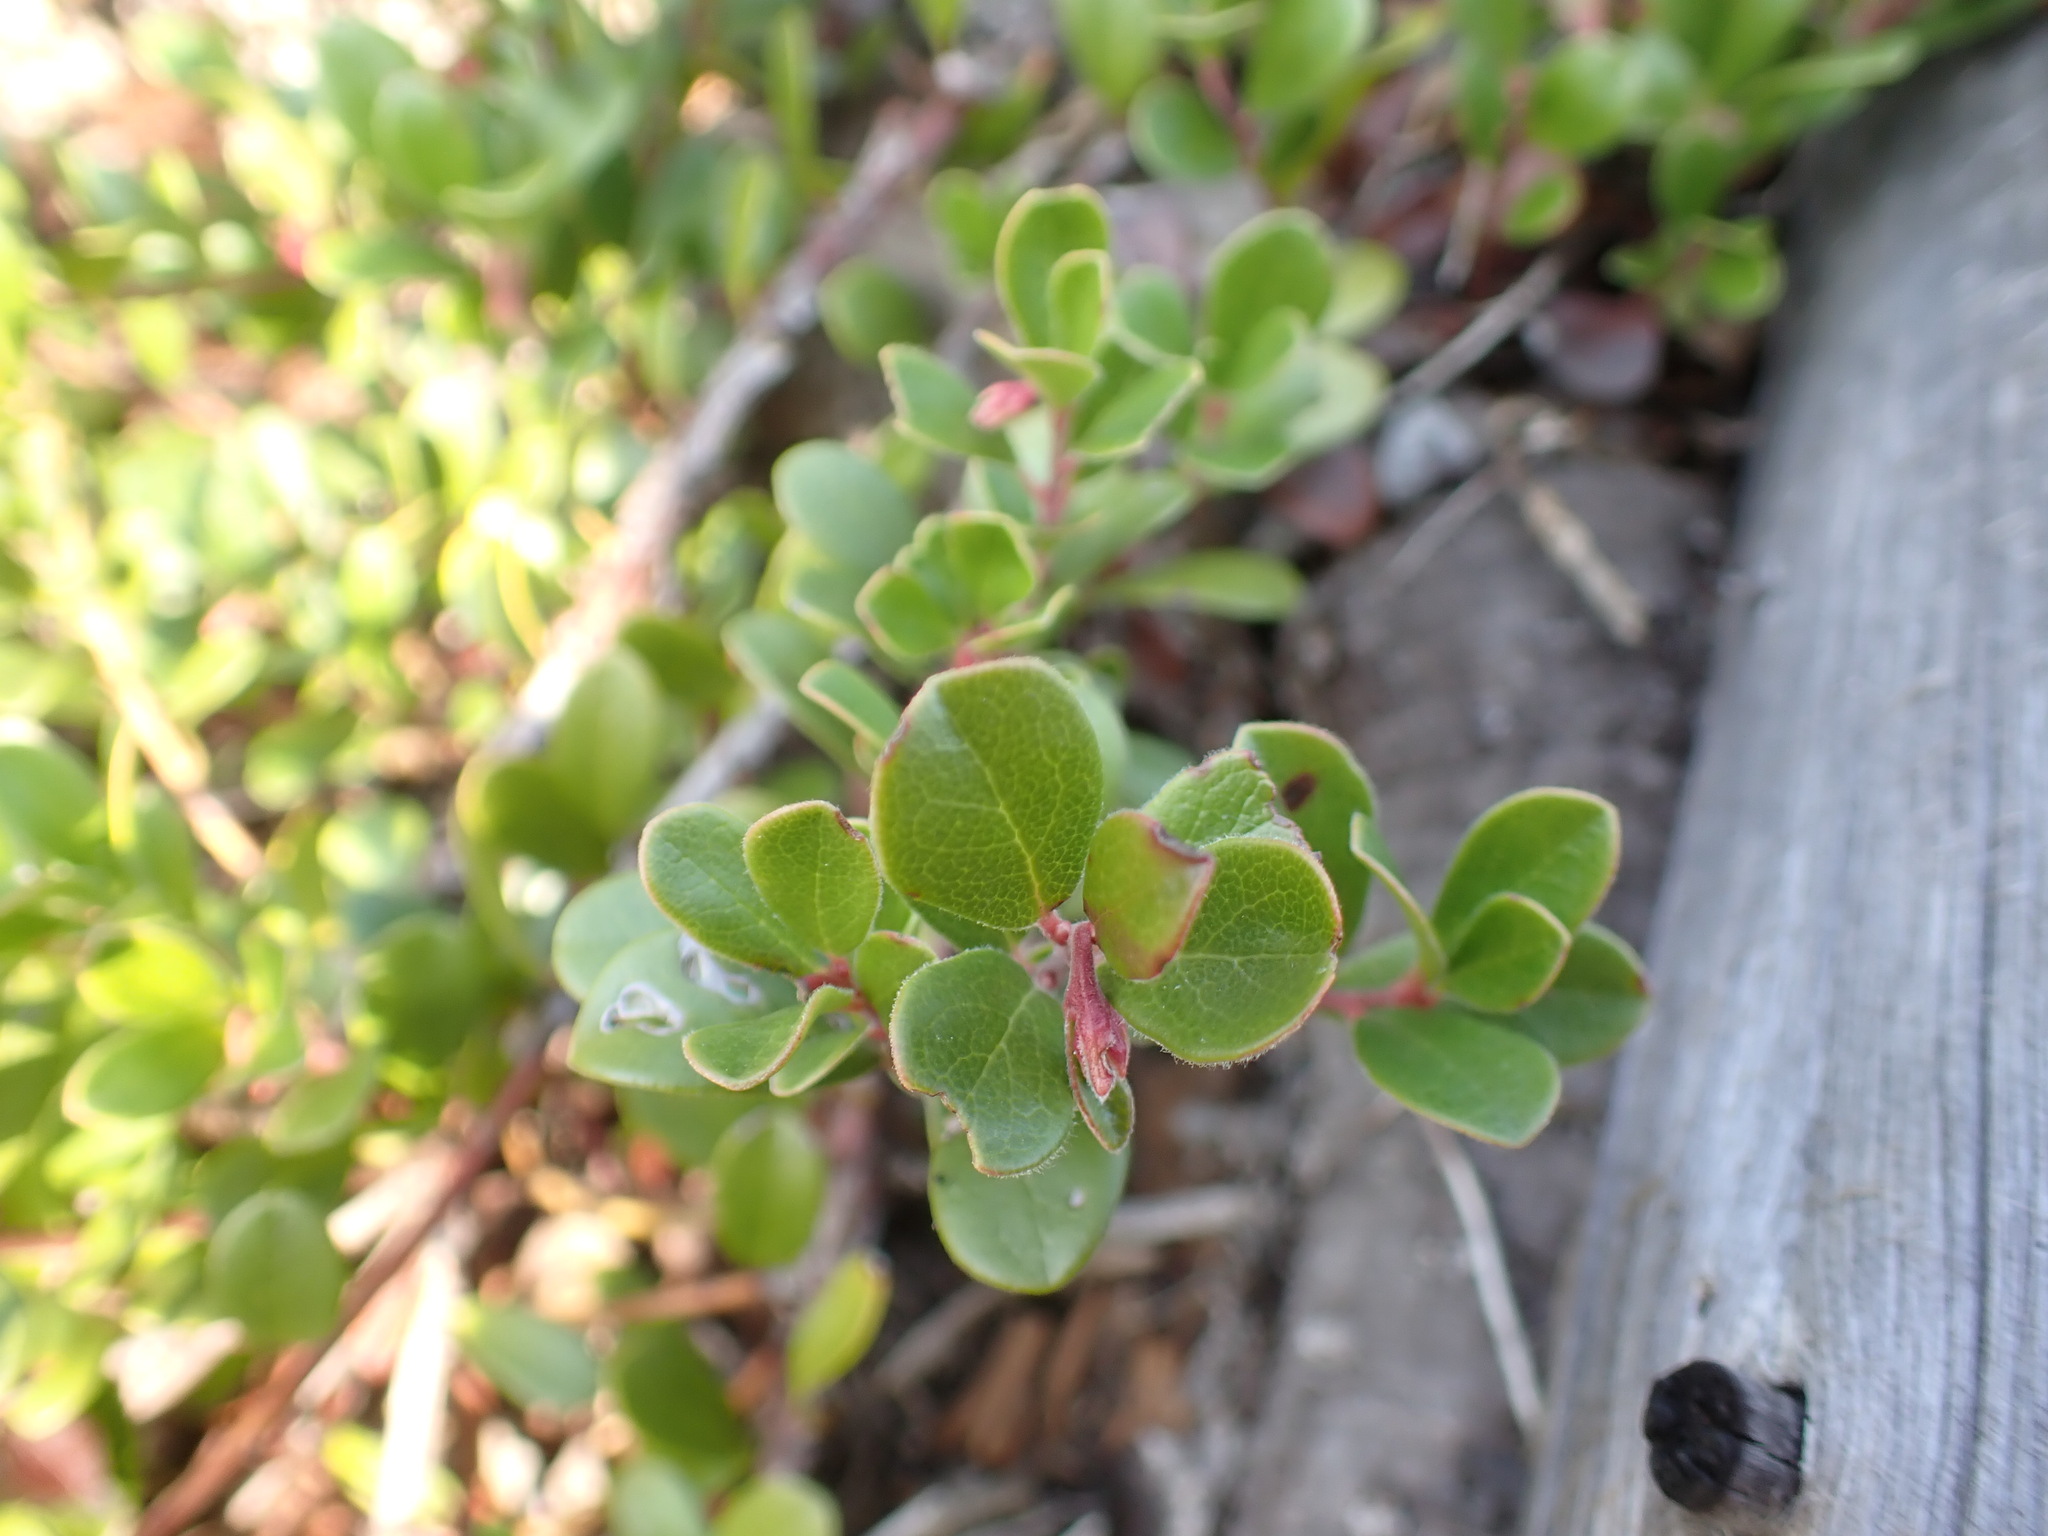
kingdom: Plantae
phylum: Tracheophyta
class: Magnoliopsida
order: Ericales
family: Ericaceae
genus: Arctostaphylos
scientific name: Arctostaphylos uva-ursi
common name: Bearberry
